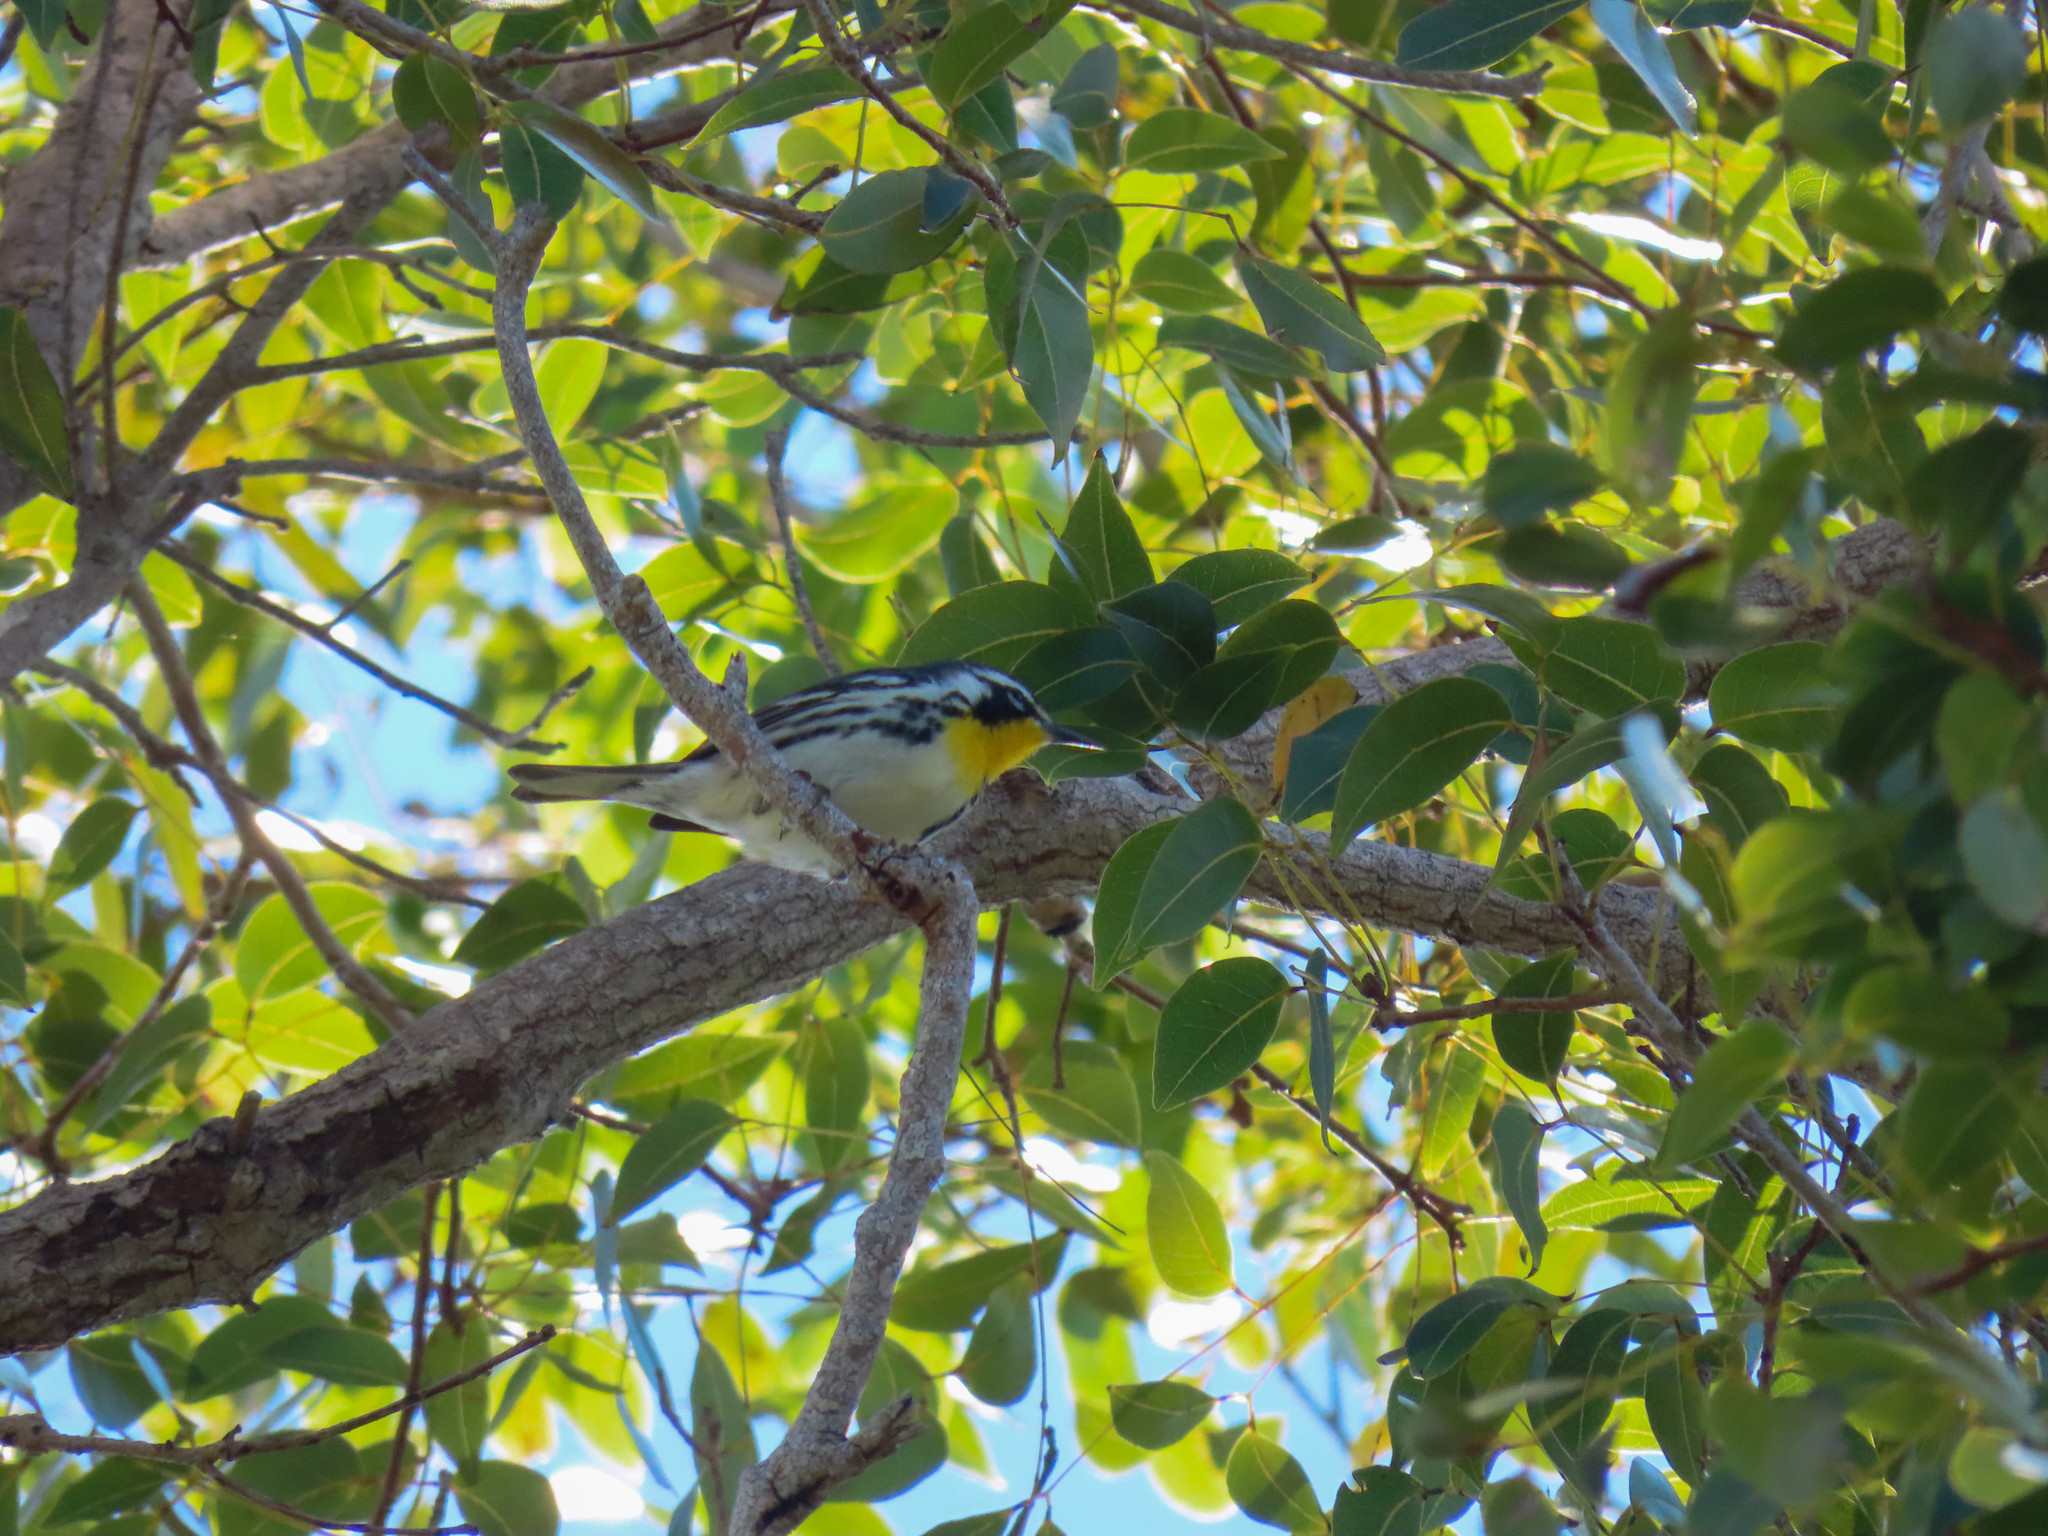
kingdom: Animalia
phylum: Chordata
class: Aves
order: Passeriformes
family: Parulidae
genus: Setophaga
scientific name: Setophaga dominica
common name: Yellow-throated warbler
